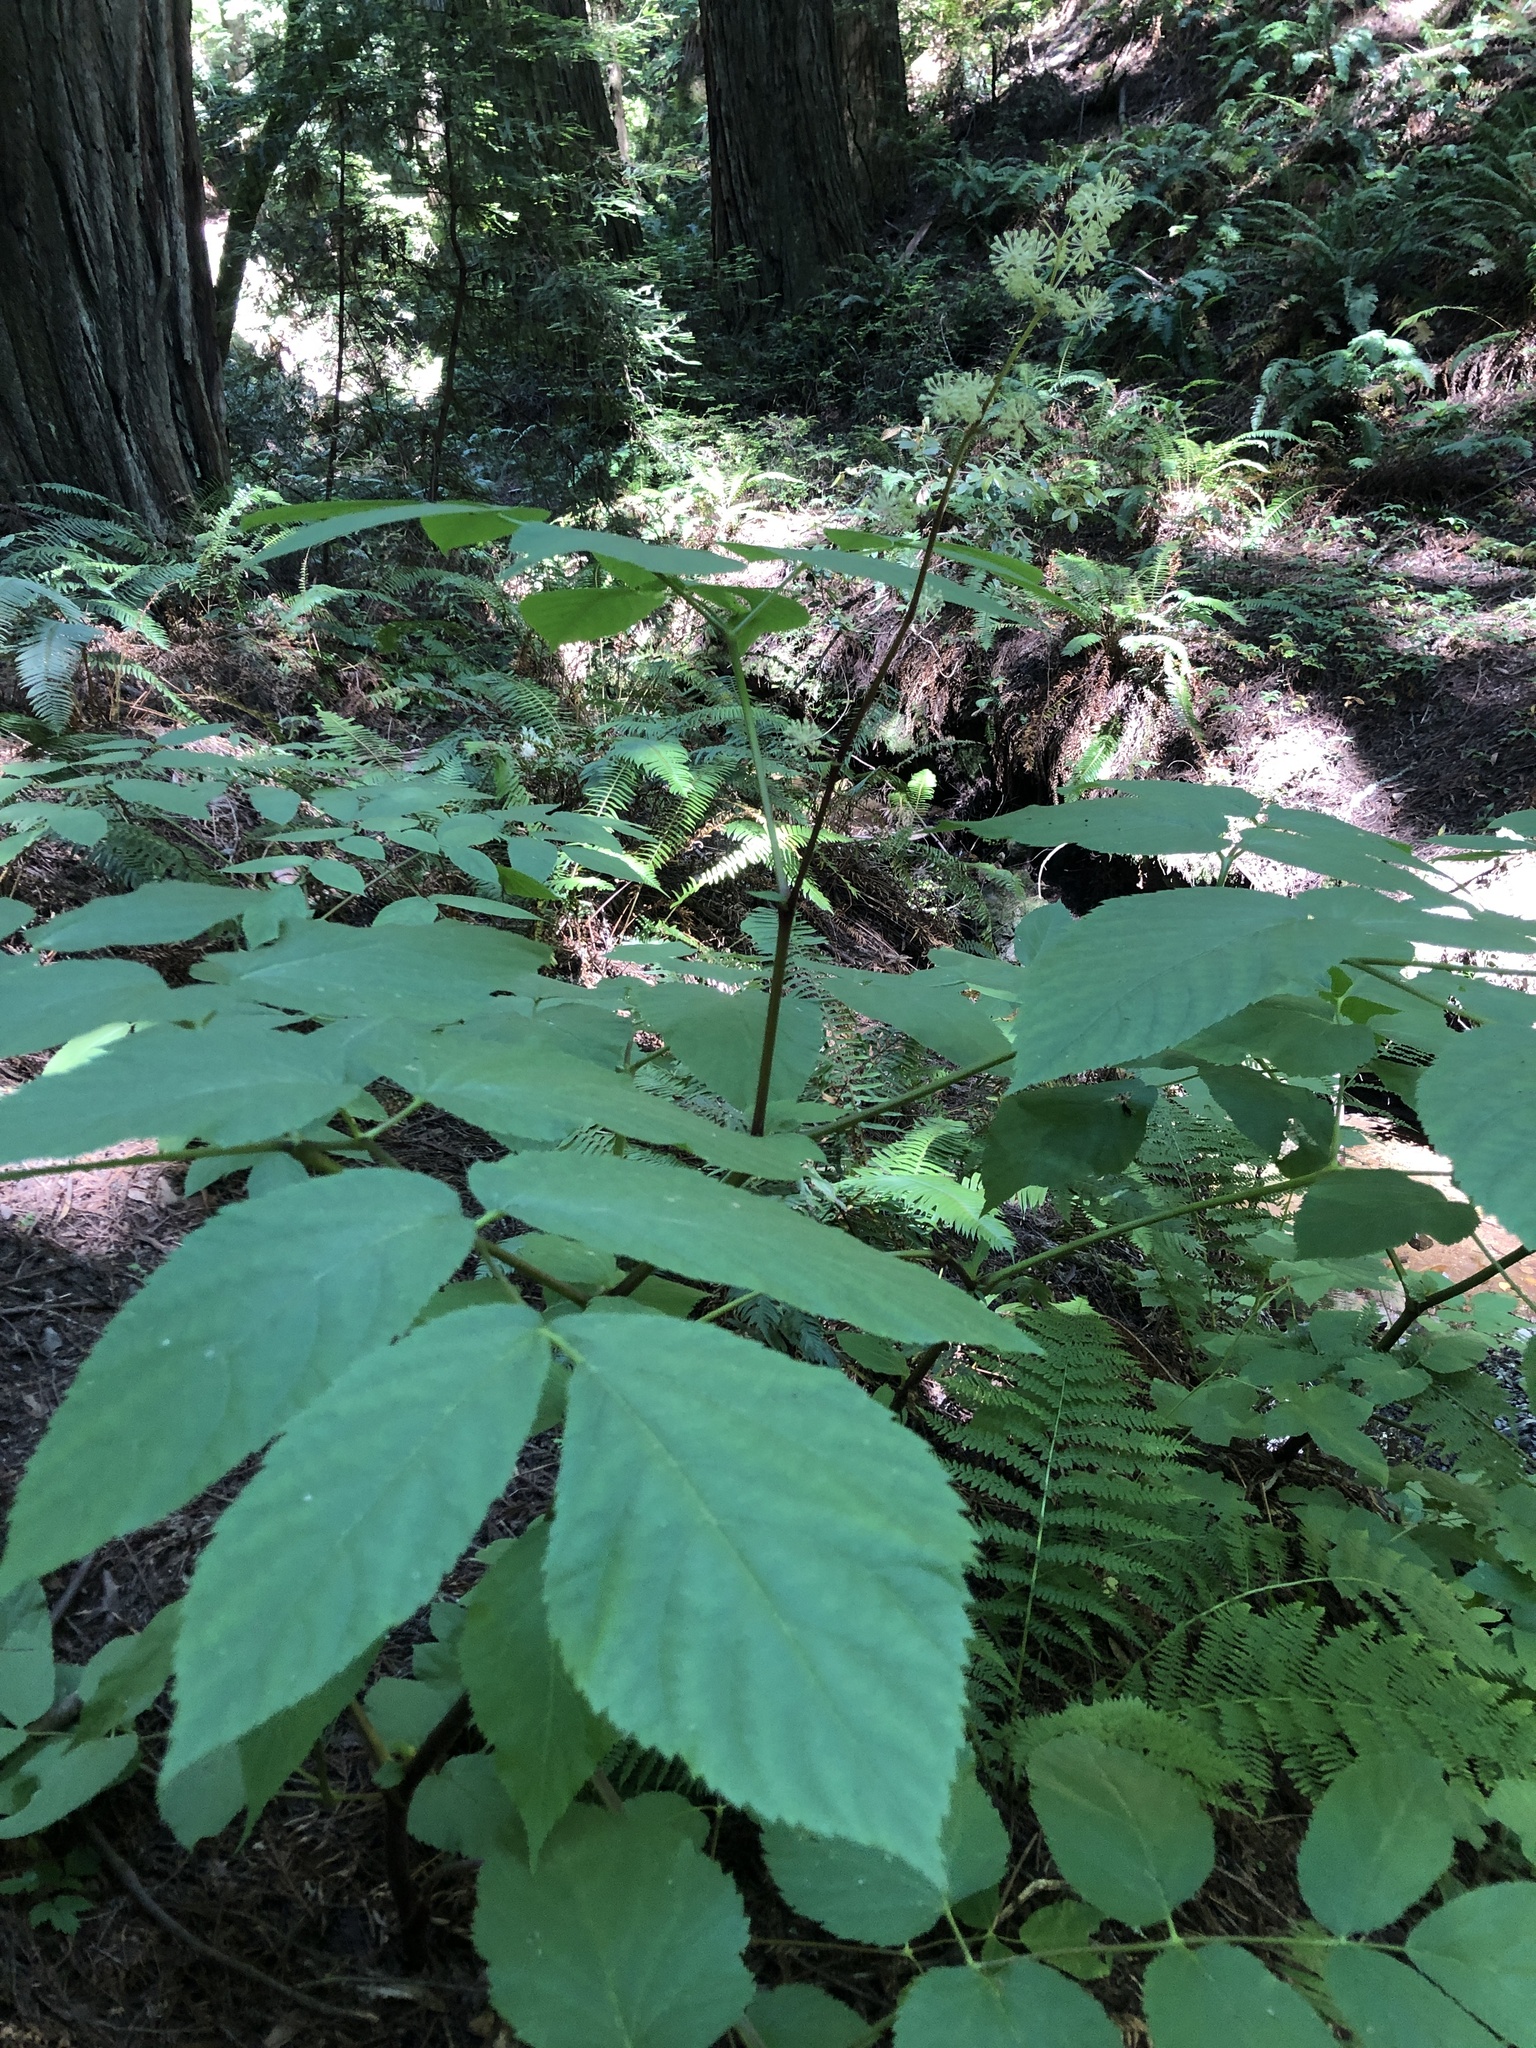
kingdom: Plantae
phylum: Tracheophyta
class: Magnoliopsida
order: Apiales
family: Araliaceae
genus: Aralia
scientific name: Aralia californica
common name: California-ginseng
